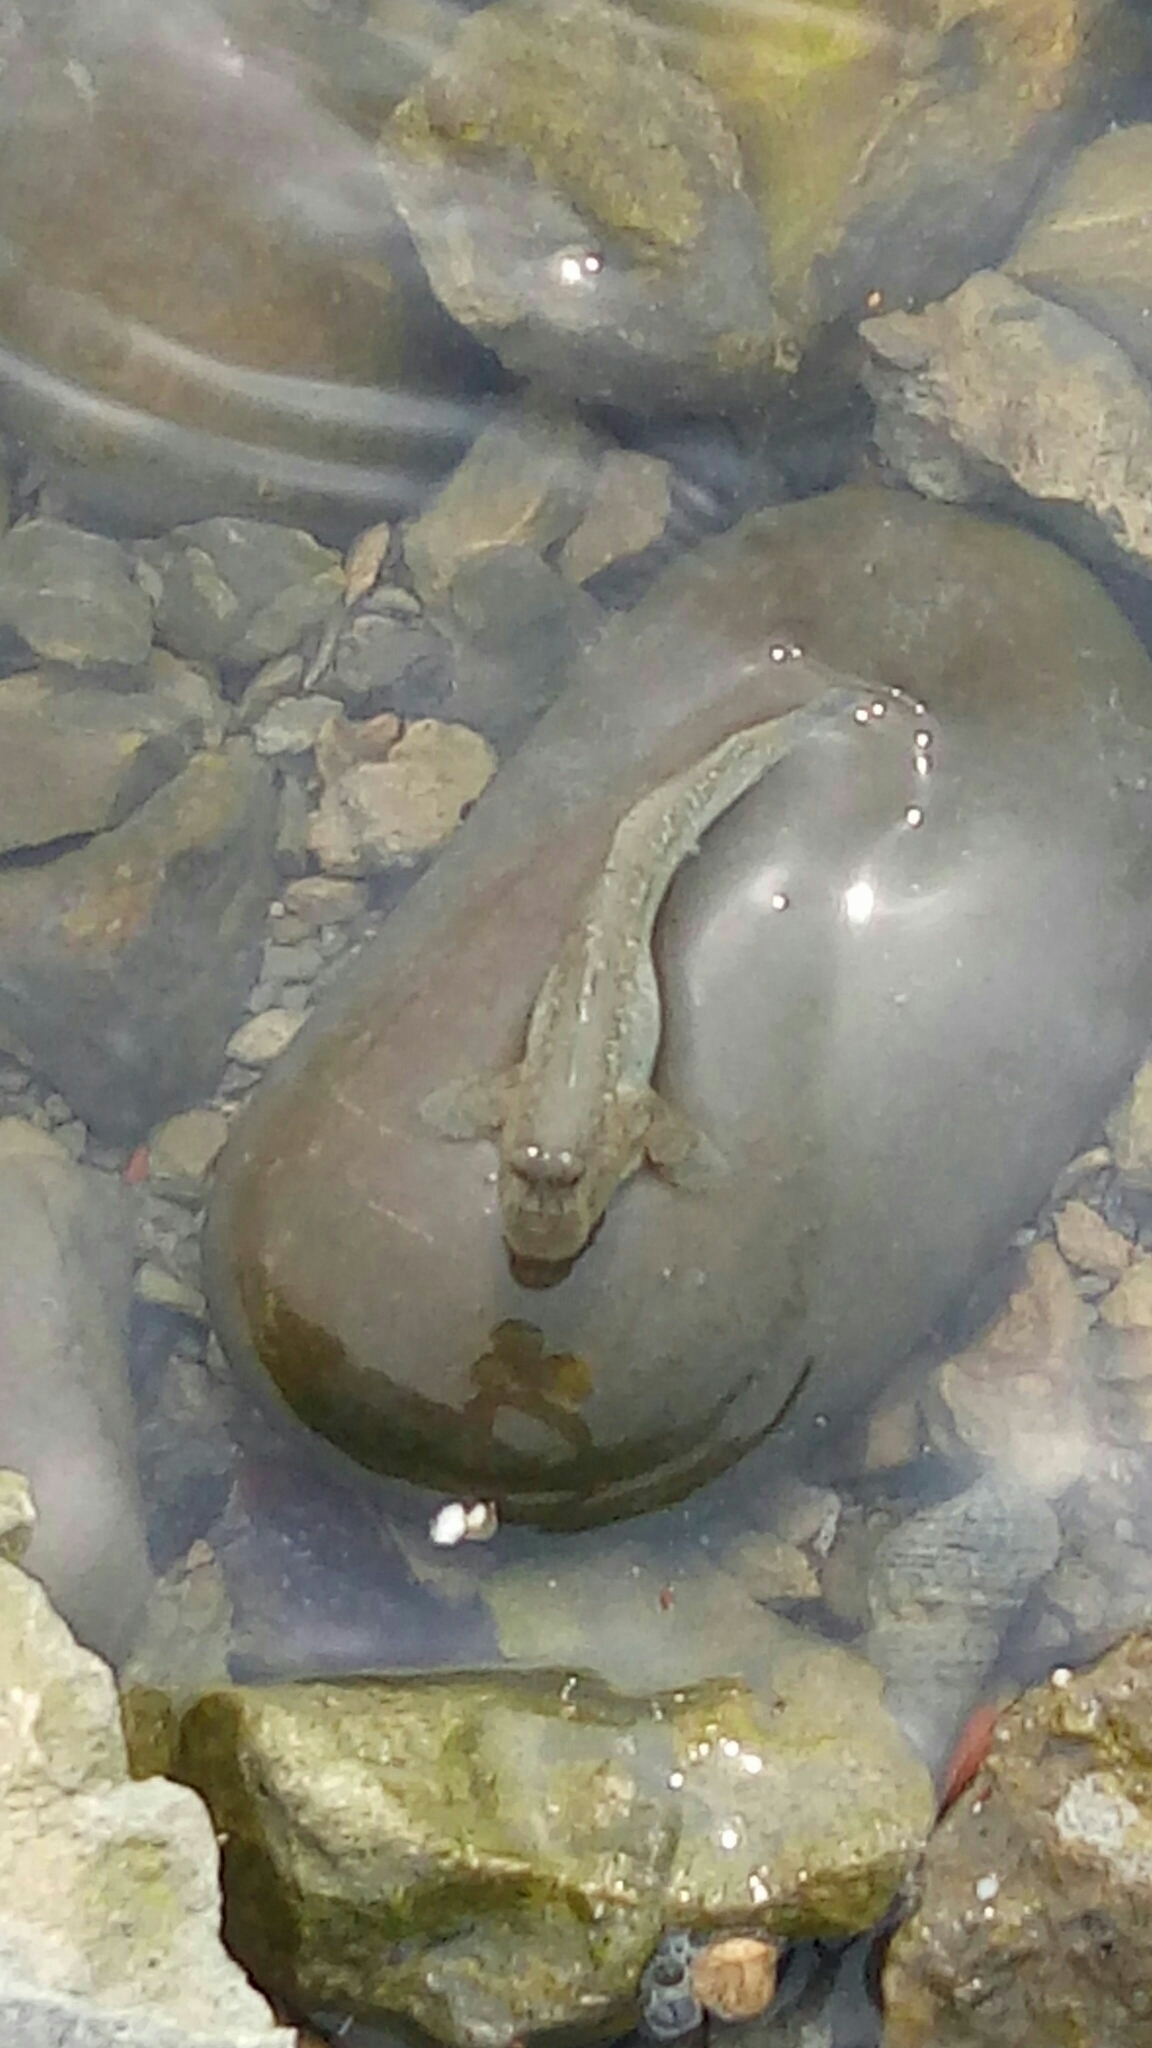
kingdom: Animalia
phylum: Chordata
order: Perciformes
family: Gobiidae
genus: Periophthalmus
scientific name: Periophthalmus modestus
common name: Black goby
